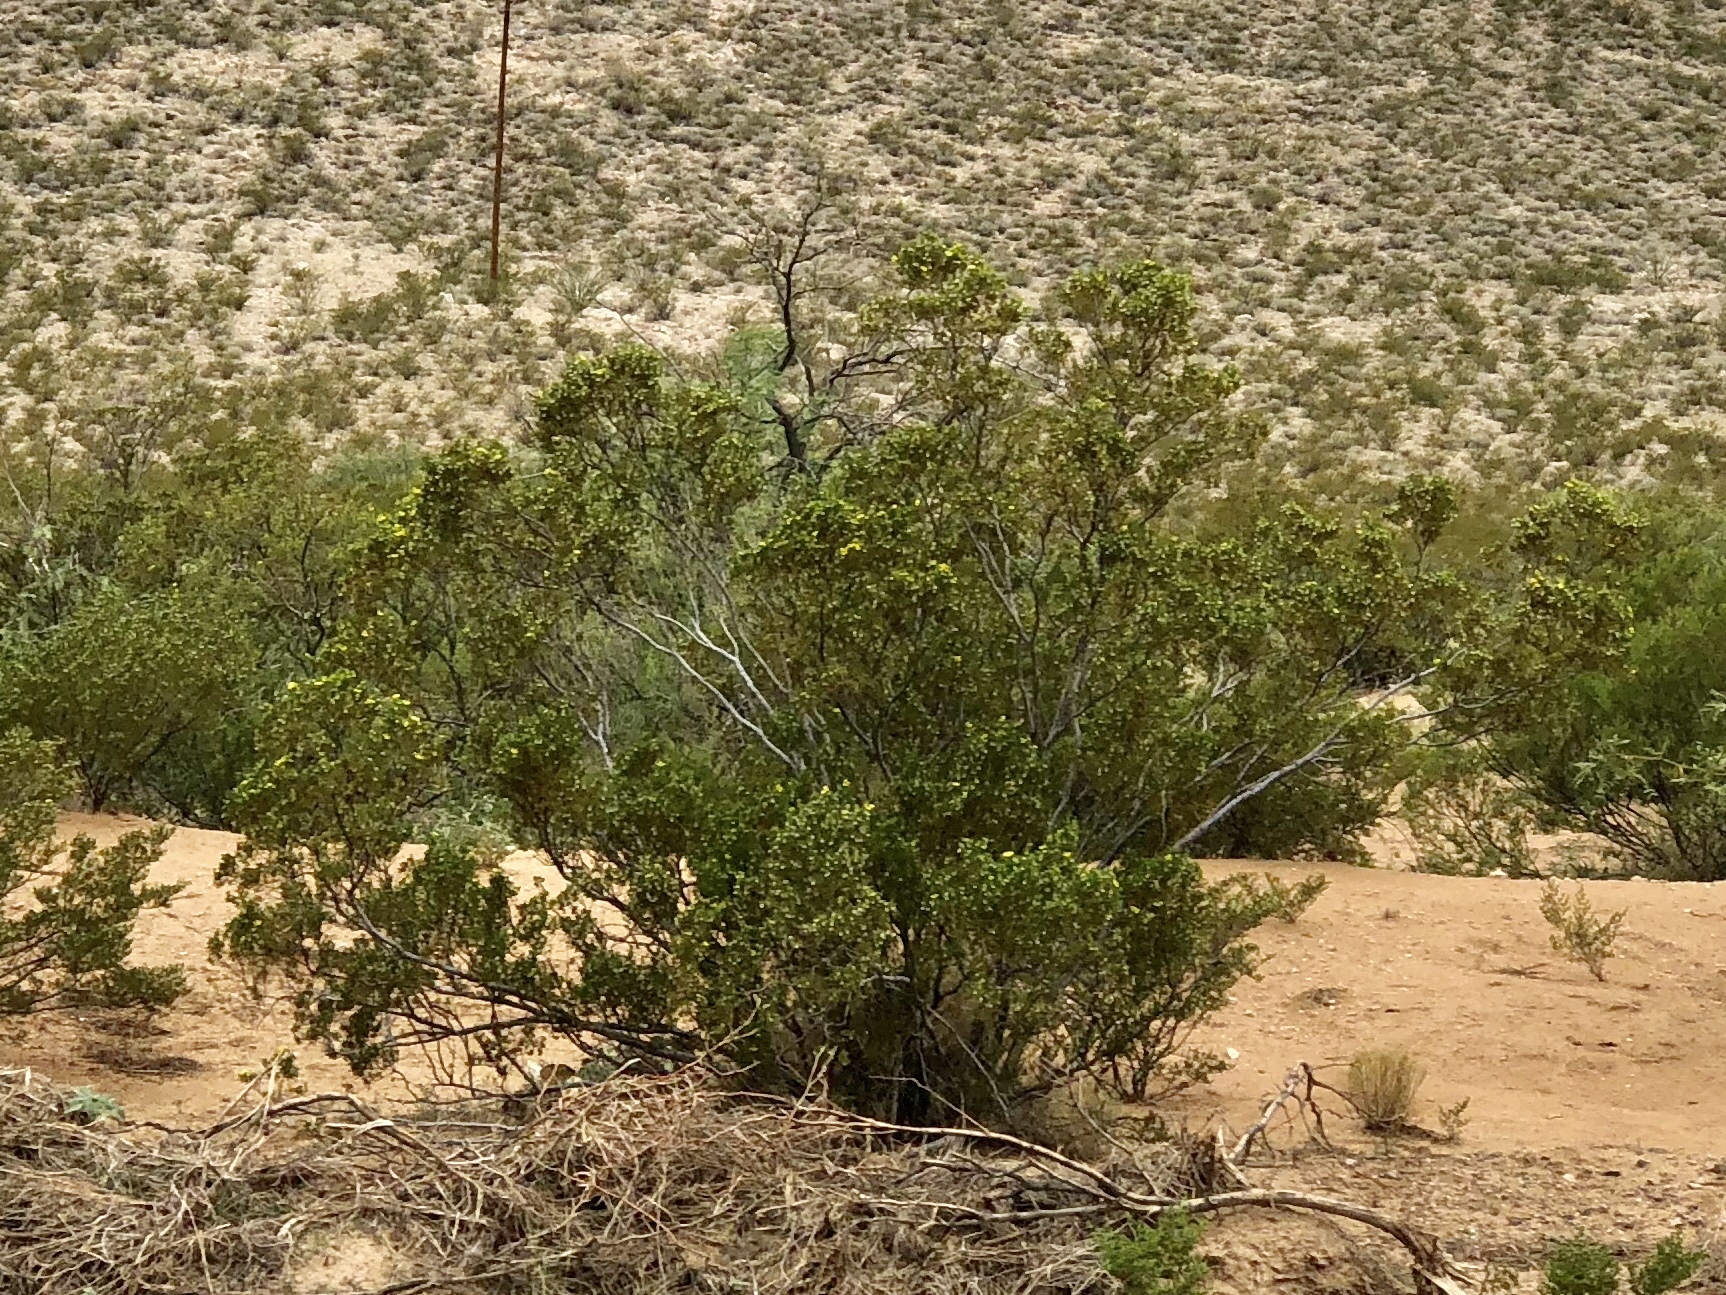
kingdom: Plantae
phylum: Tracheophyta
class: Magnoliopsida
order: Zygophyllales
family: Zygophyllaceae
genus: Larrea
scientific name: Larrea tridentata
